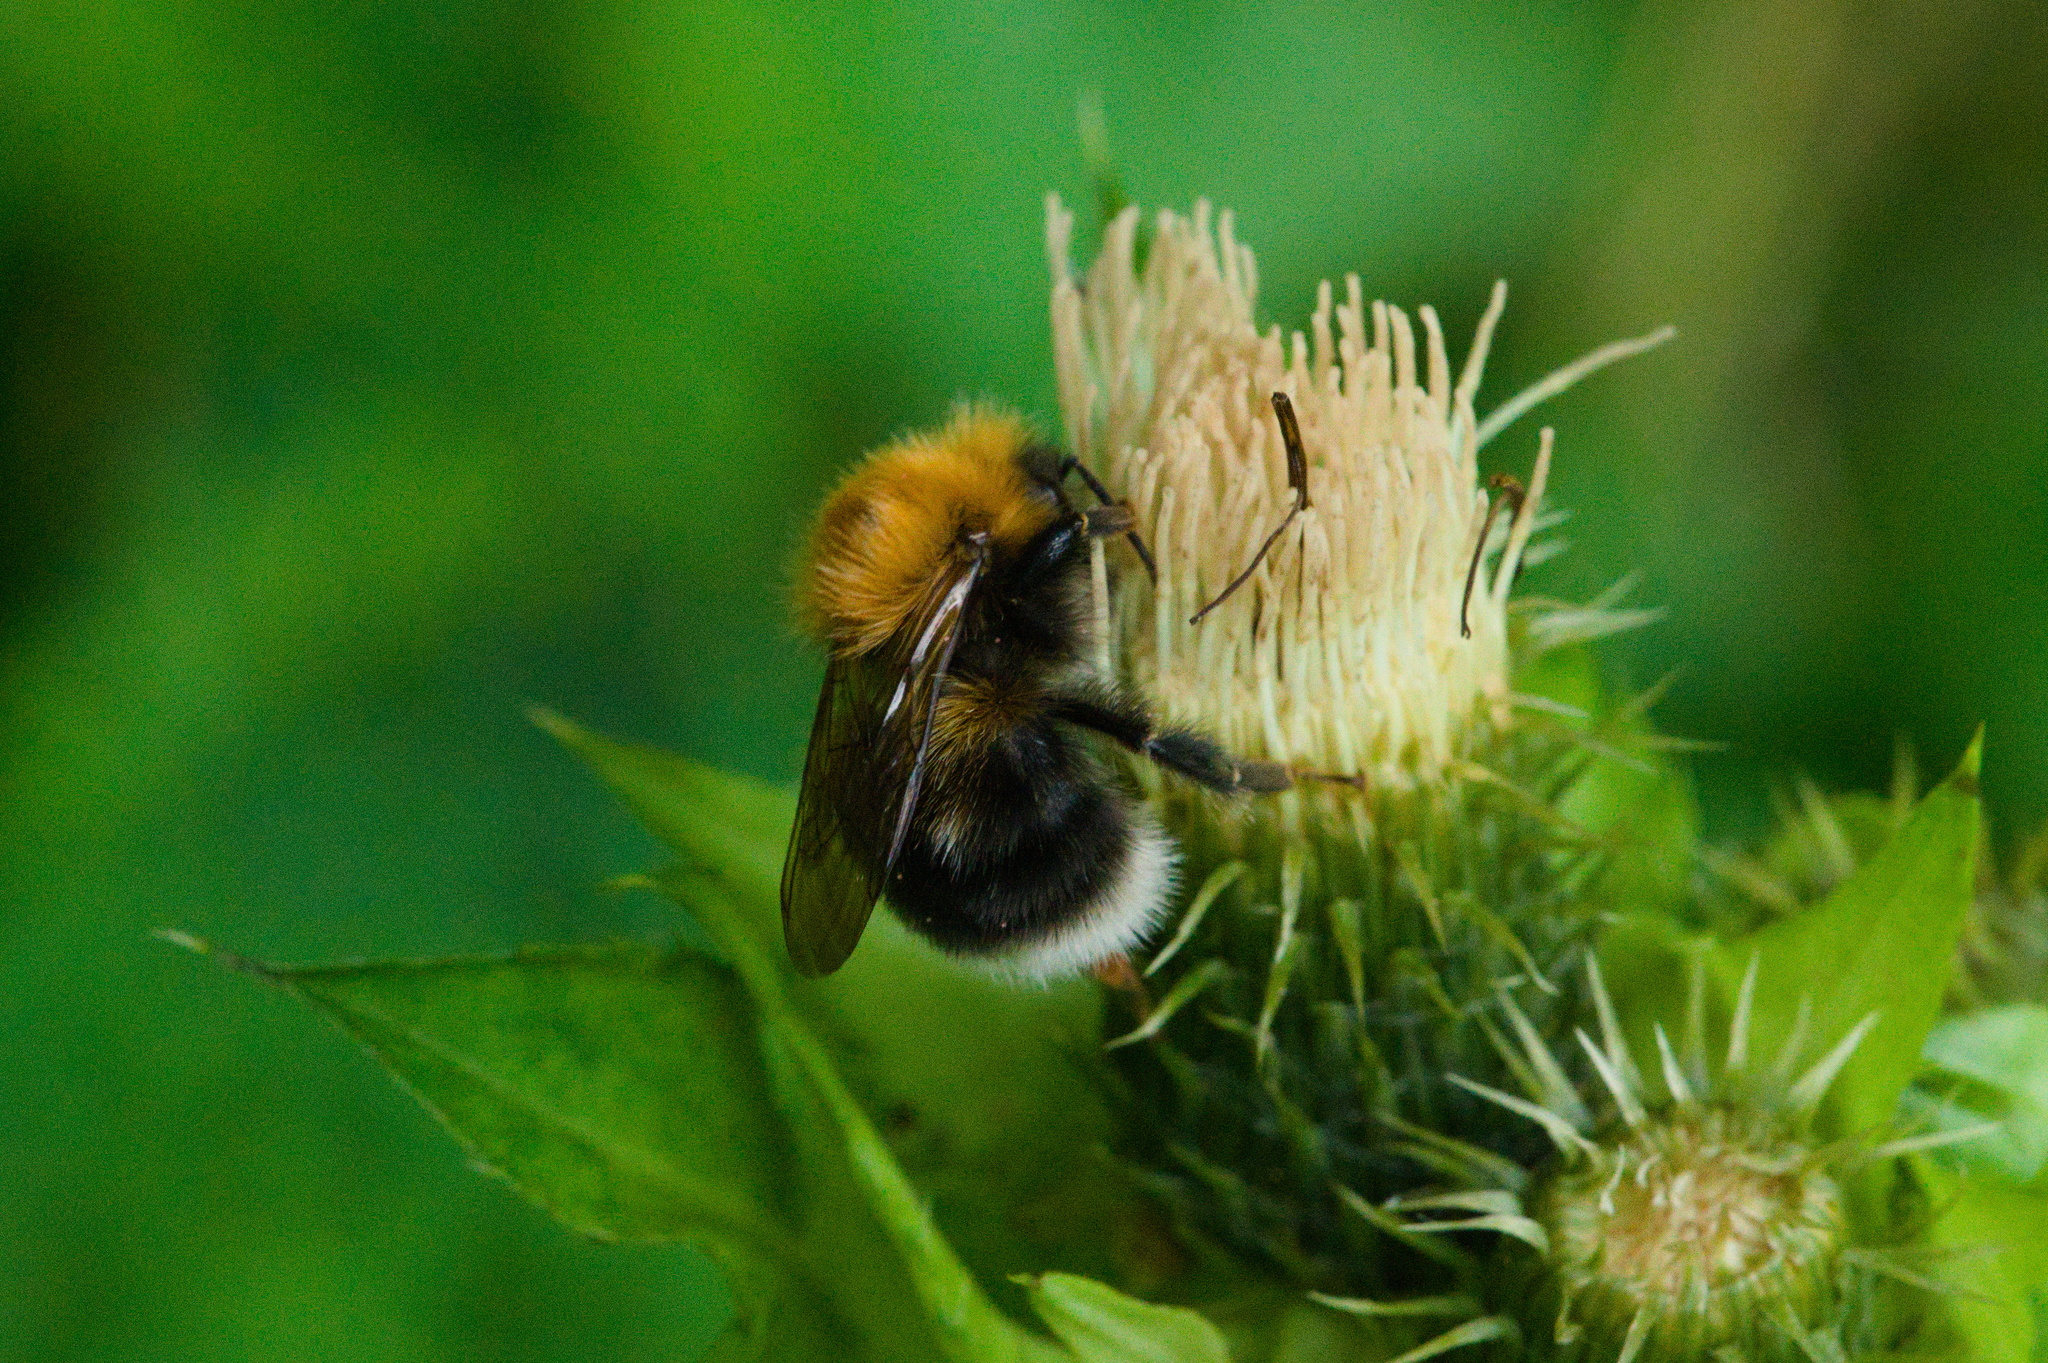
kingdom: Animalia
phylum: Arthropoda
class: Insecta
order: Hymenoptera
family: Apidae
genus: Bombus
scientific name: Bombus hypnorum
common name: New garden bumblebee
